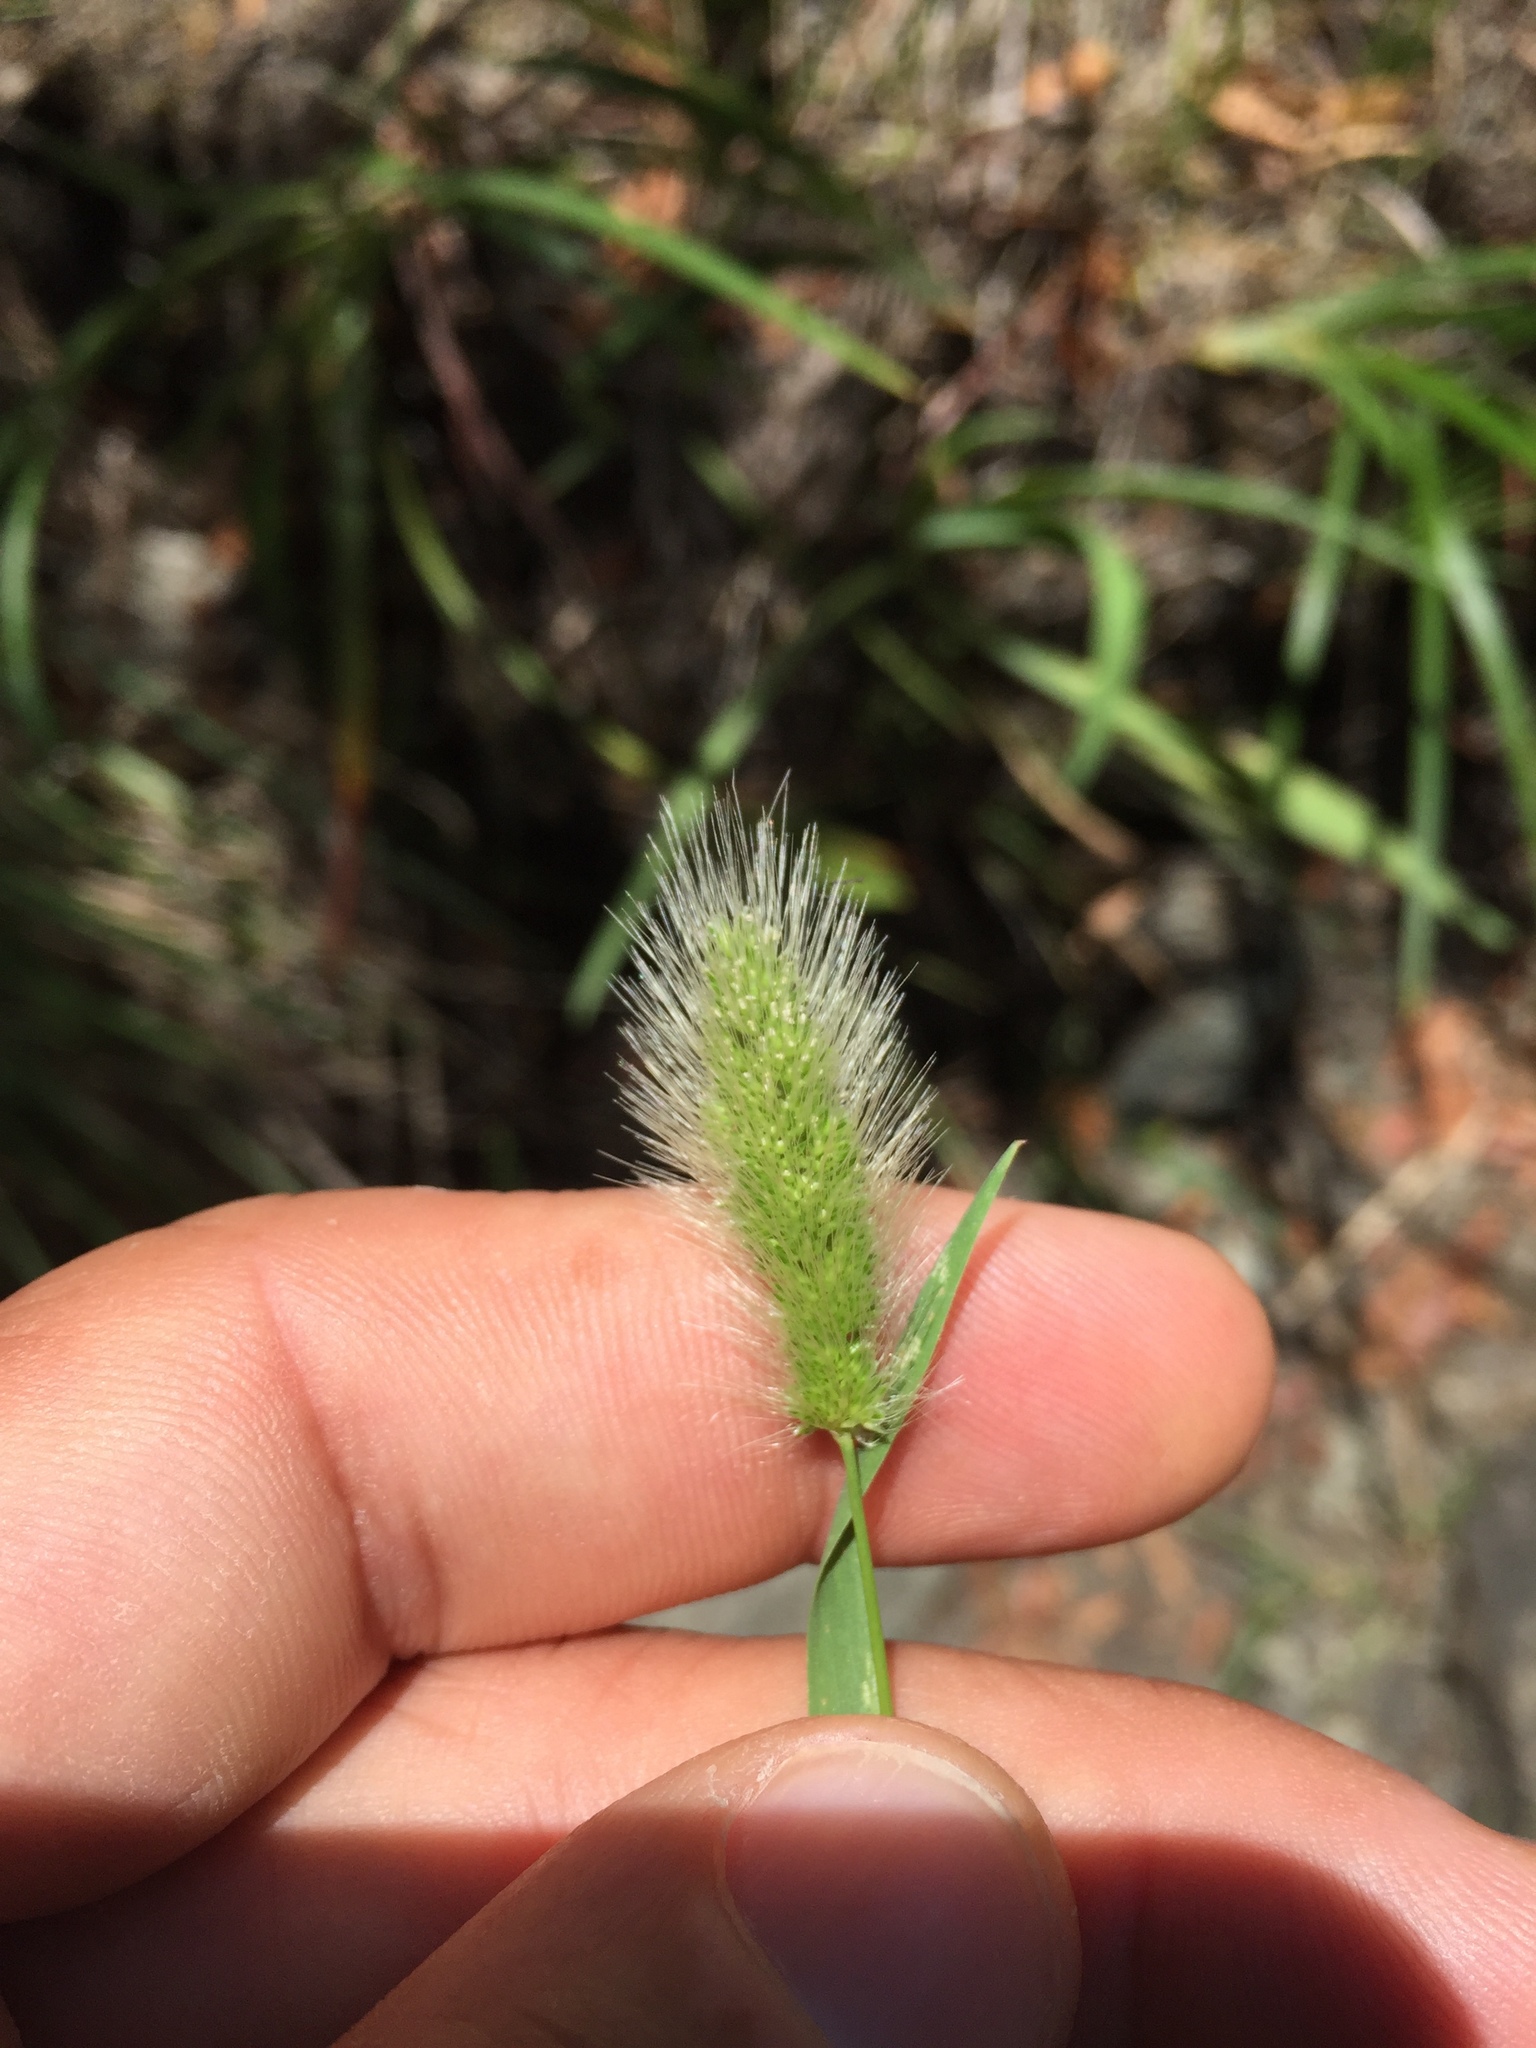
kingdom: Plantae
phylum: Tracheophyta
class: Liliopsida
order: Poales
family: Poaceae
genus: Polypogon
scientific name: Polypogon monspeliensis
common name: Annual rabbitsfoot grass
